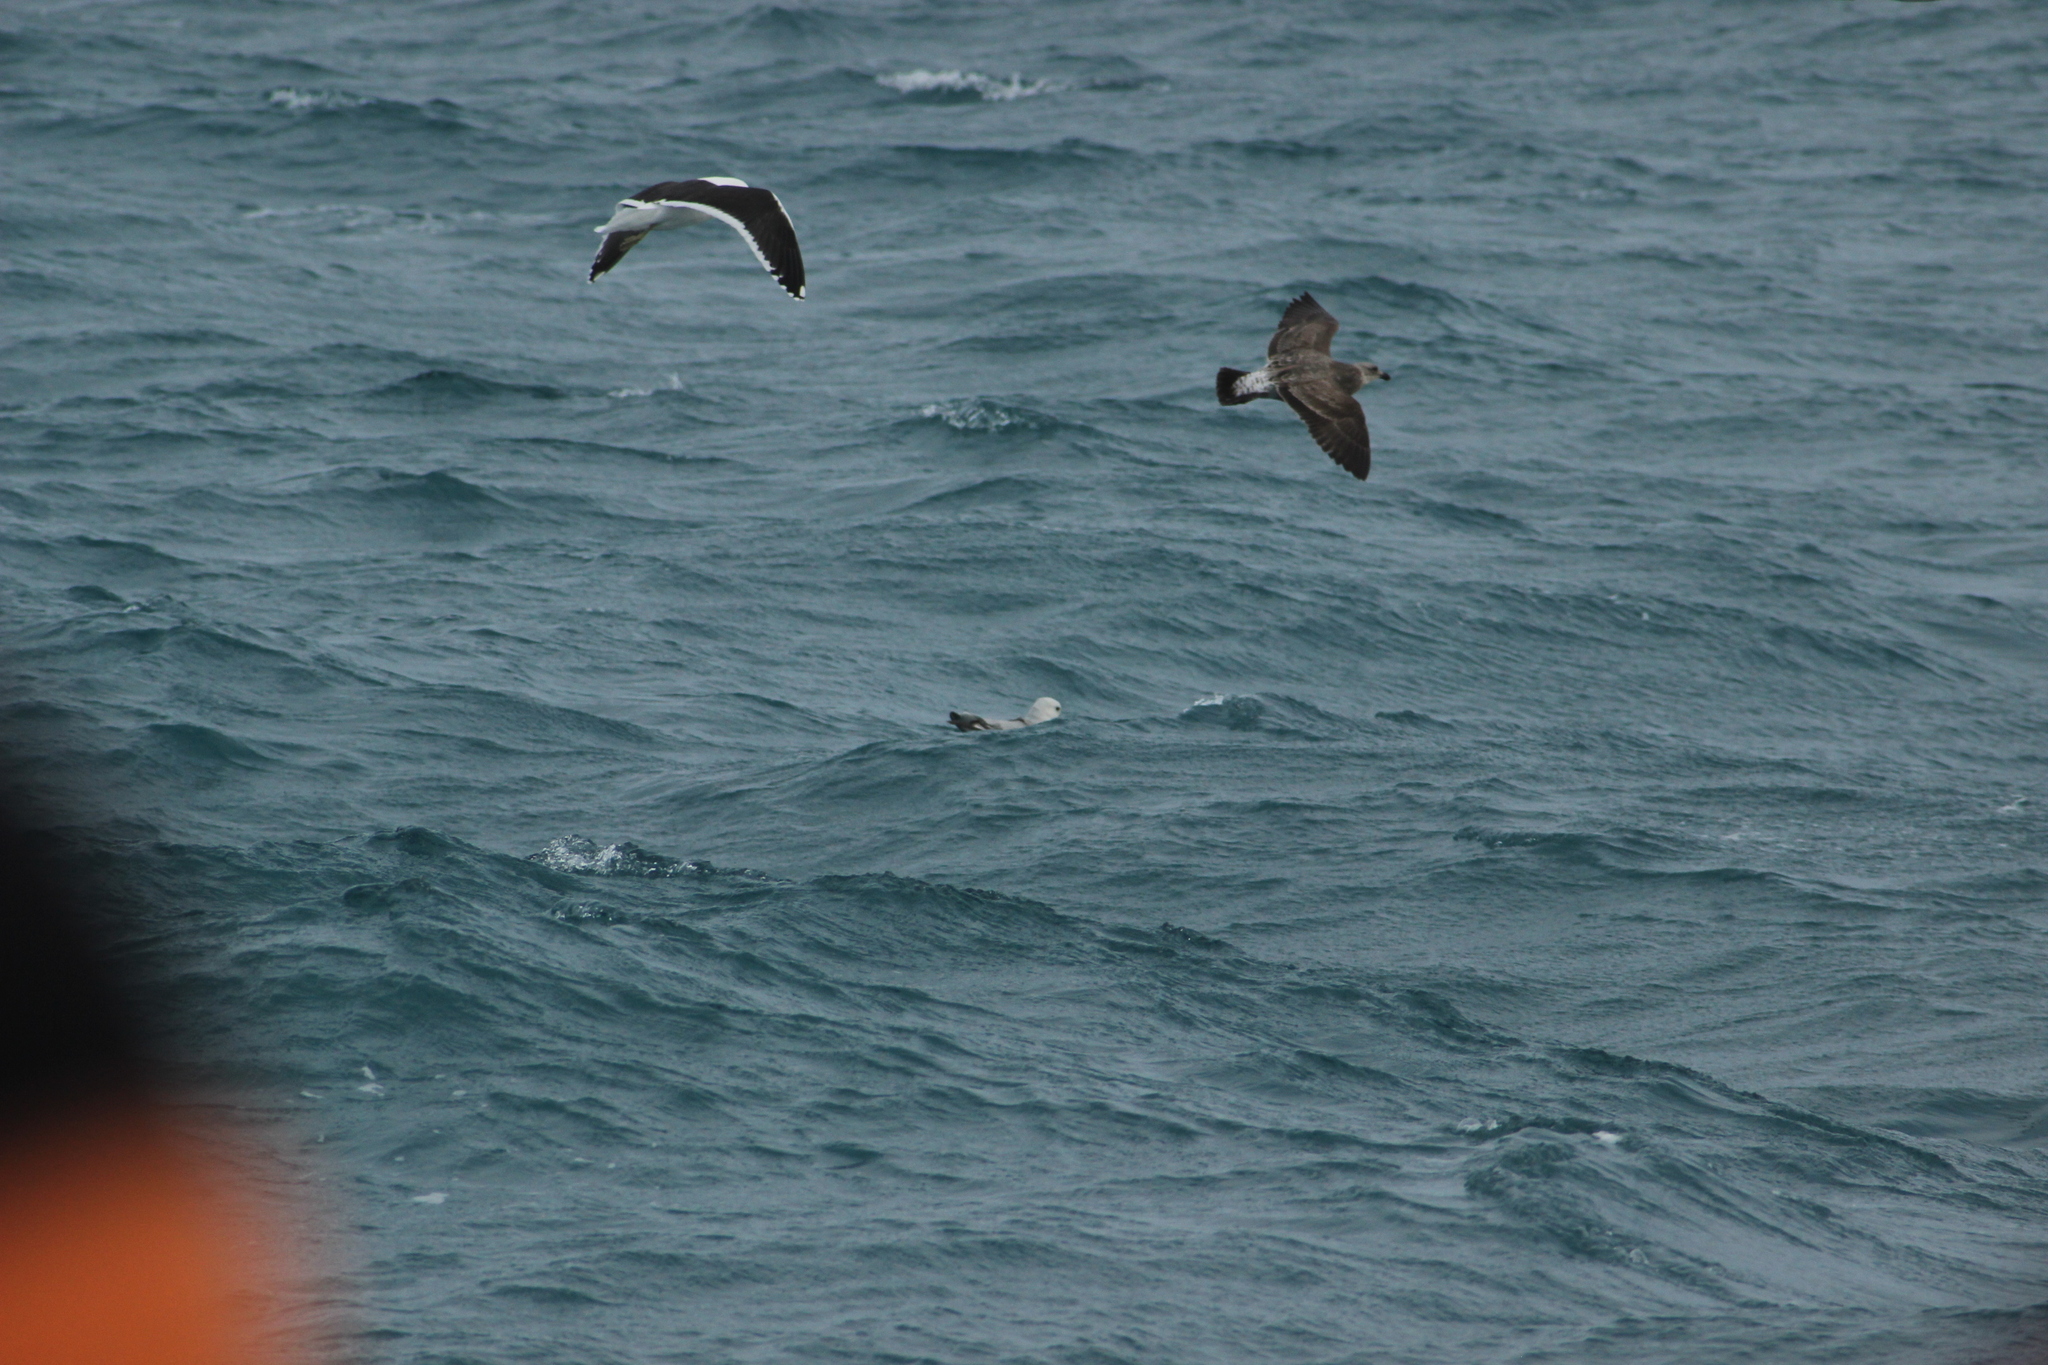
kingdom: Animalia
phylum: Chordata
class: Aves
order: Procellariiformes
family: Procellariidae
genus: Fulmarus
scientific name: Fulmarus glacialoides
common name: Southern fulmar
